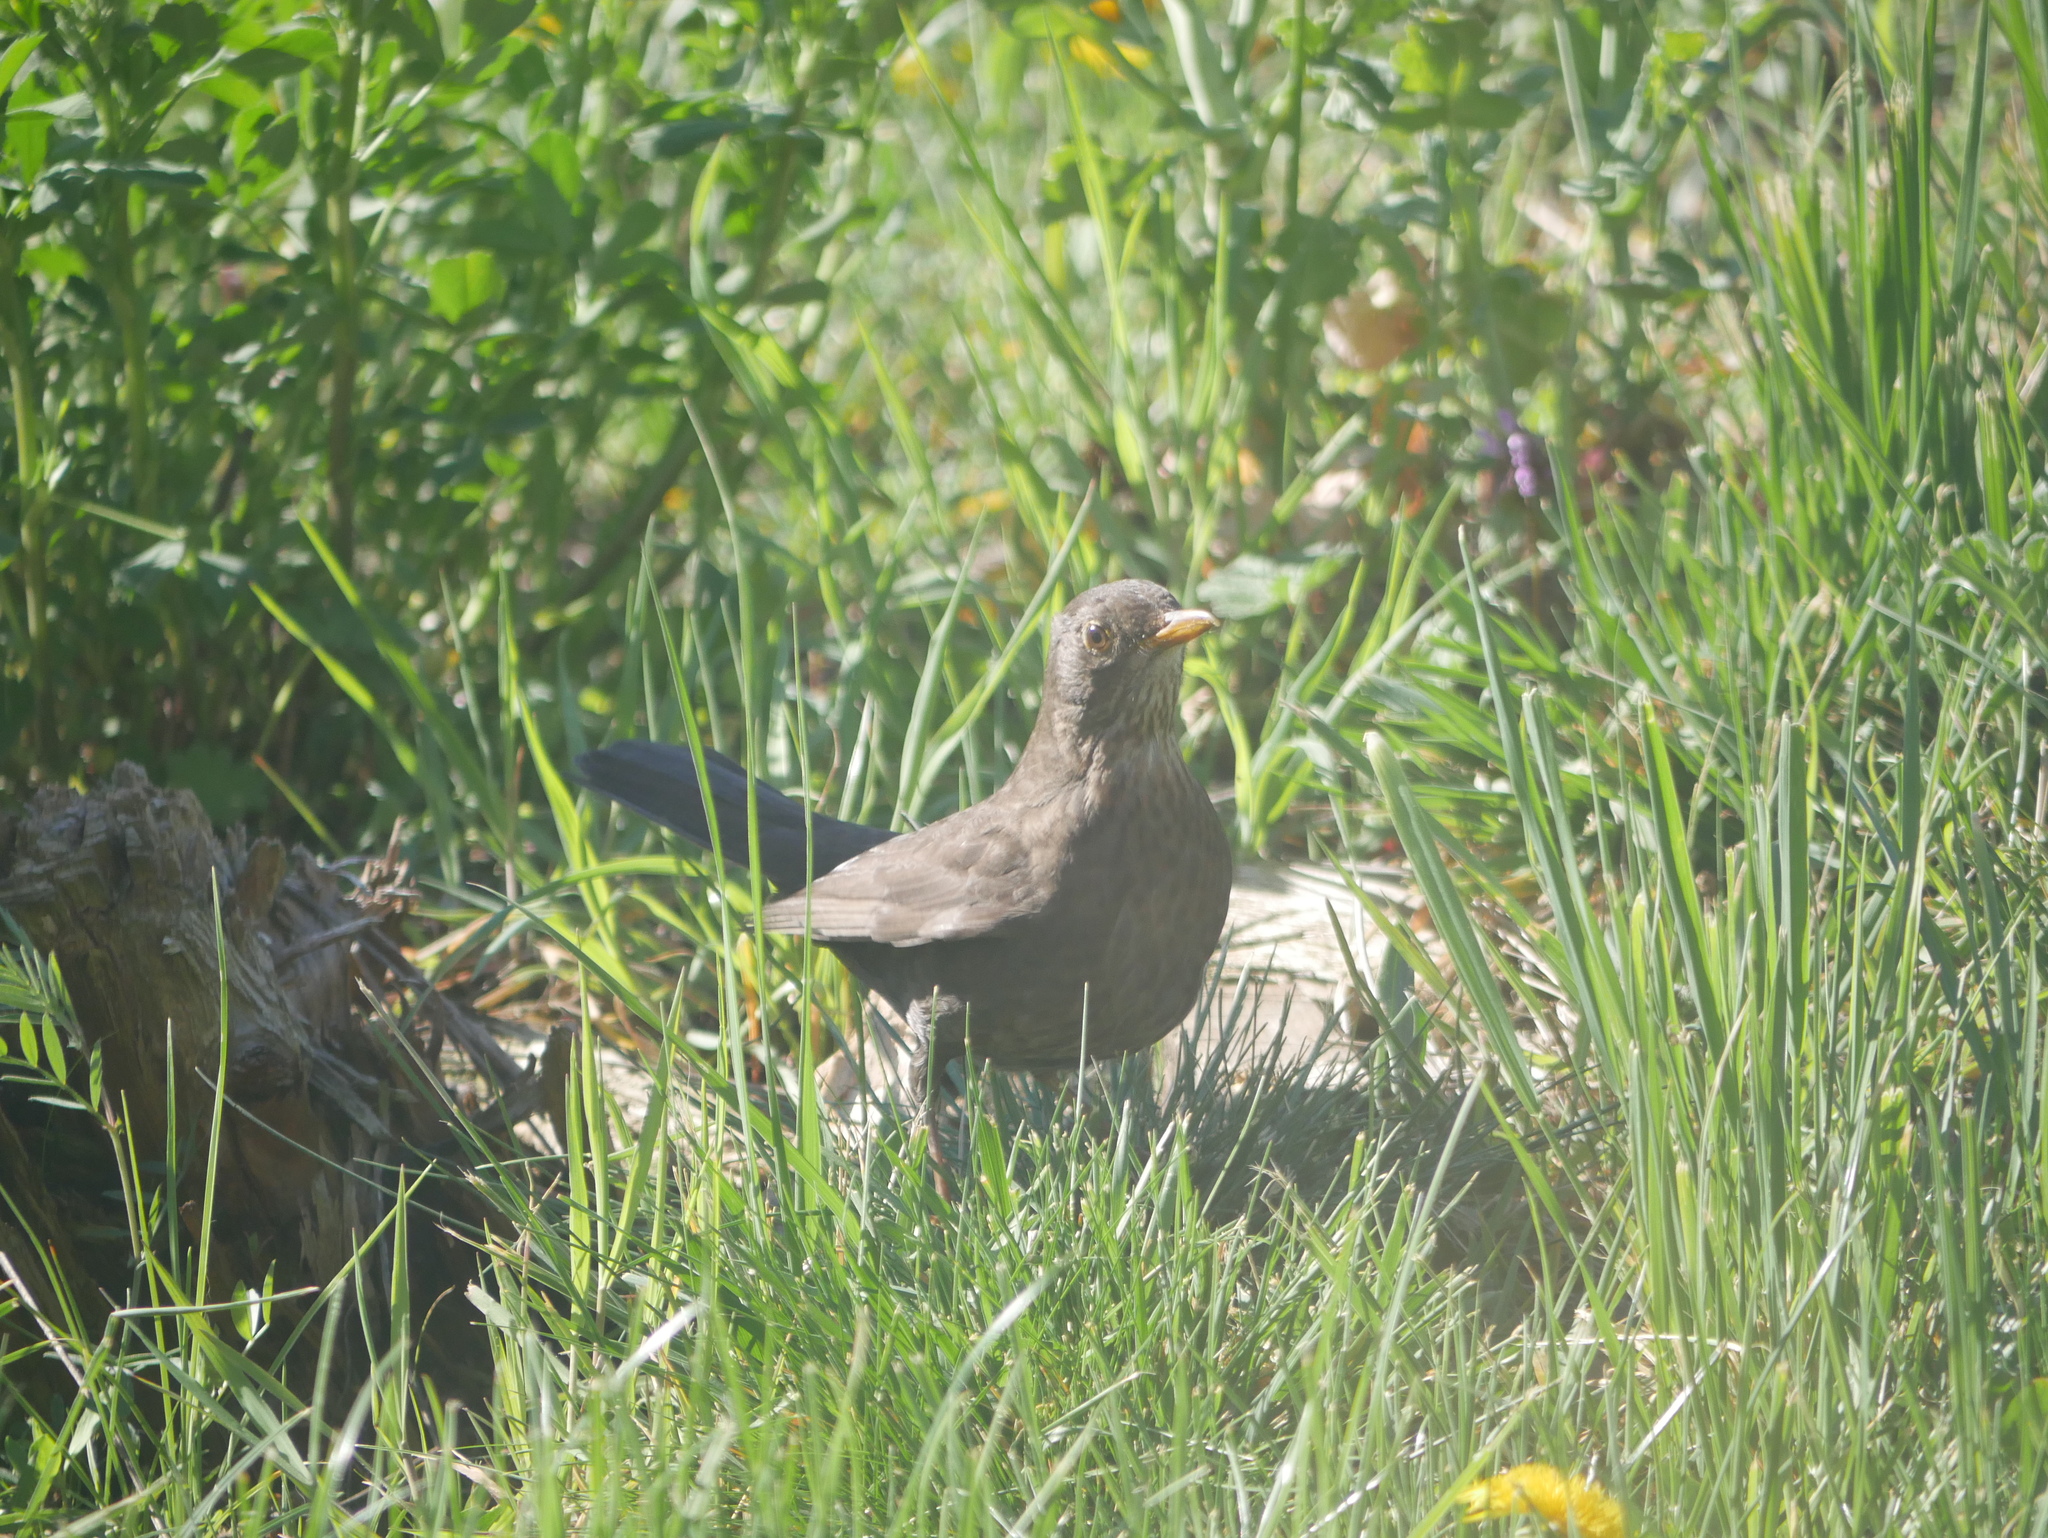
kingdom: Animalia
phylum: Chordata
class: Aves
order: Passeriformes
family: Turdidae
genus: Turdus
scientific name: Turdus merula
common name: Common blackbird
